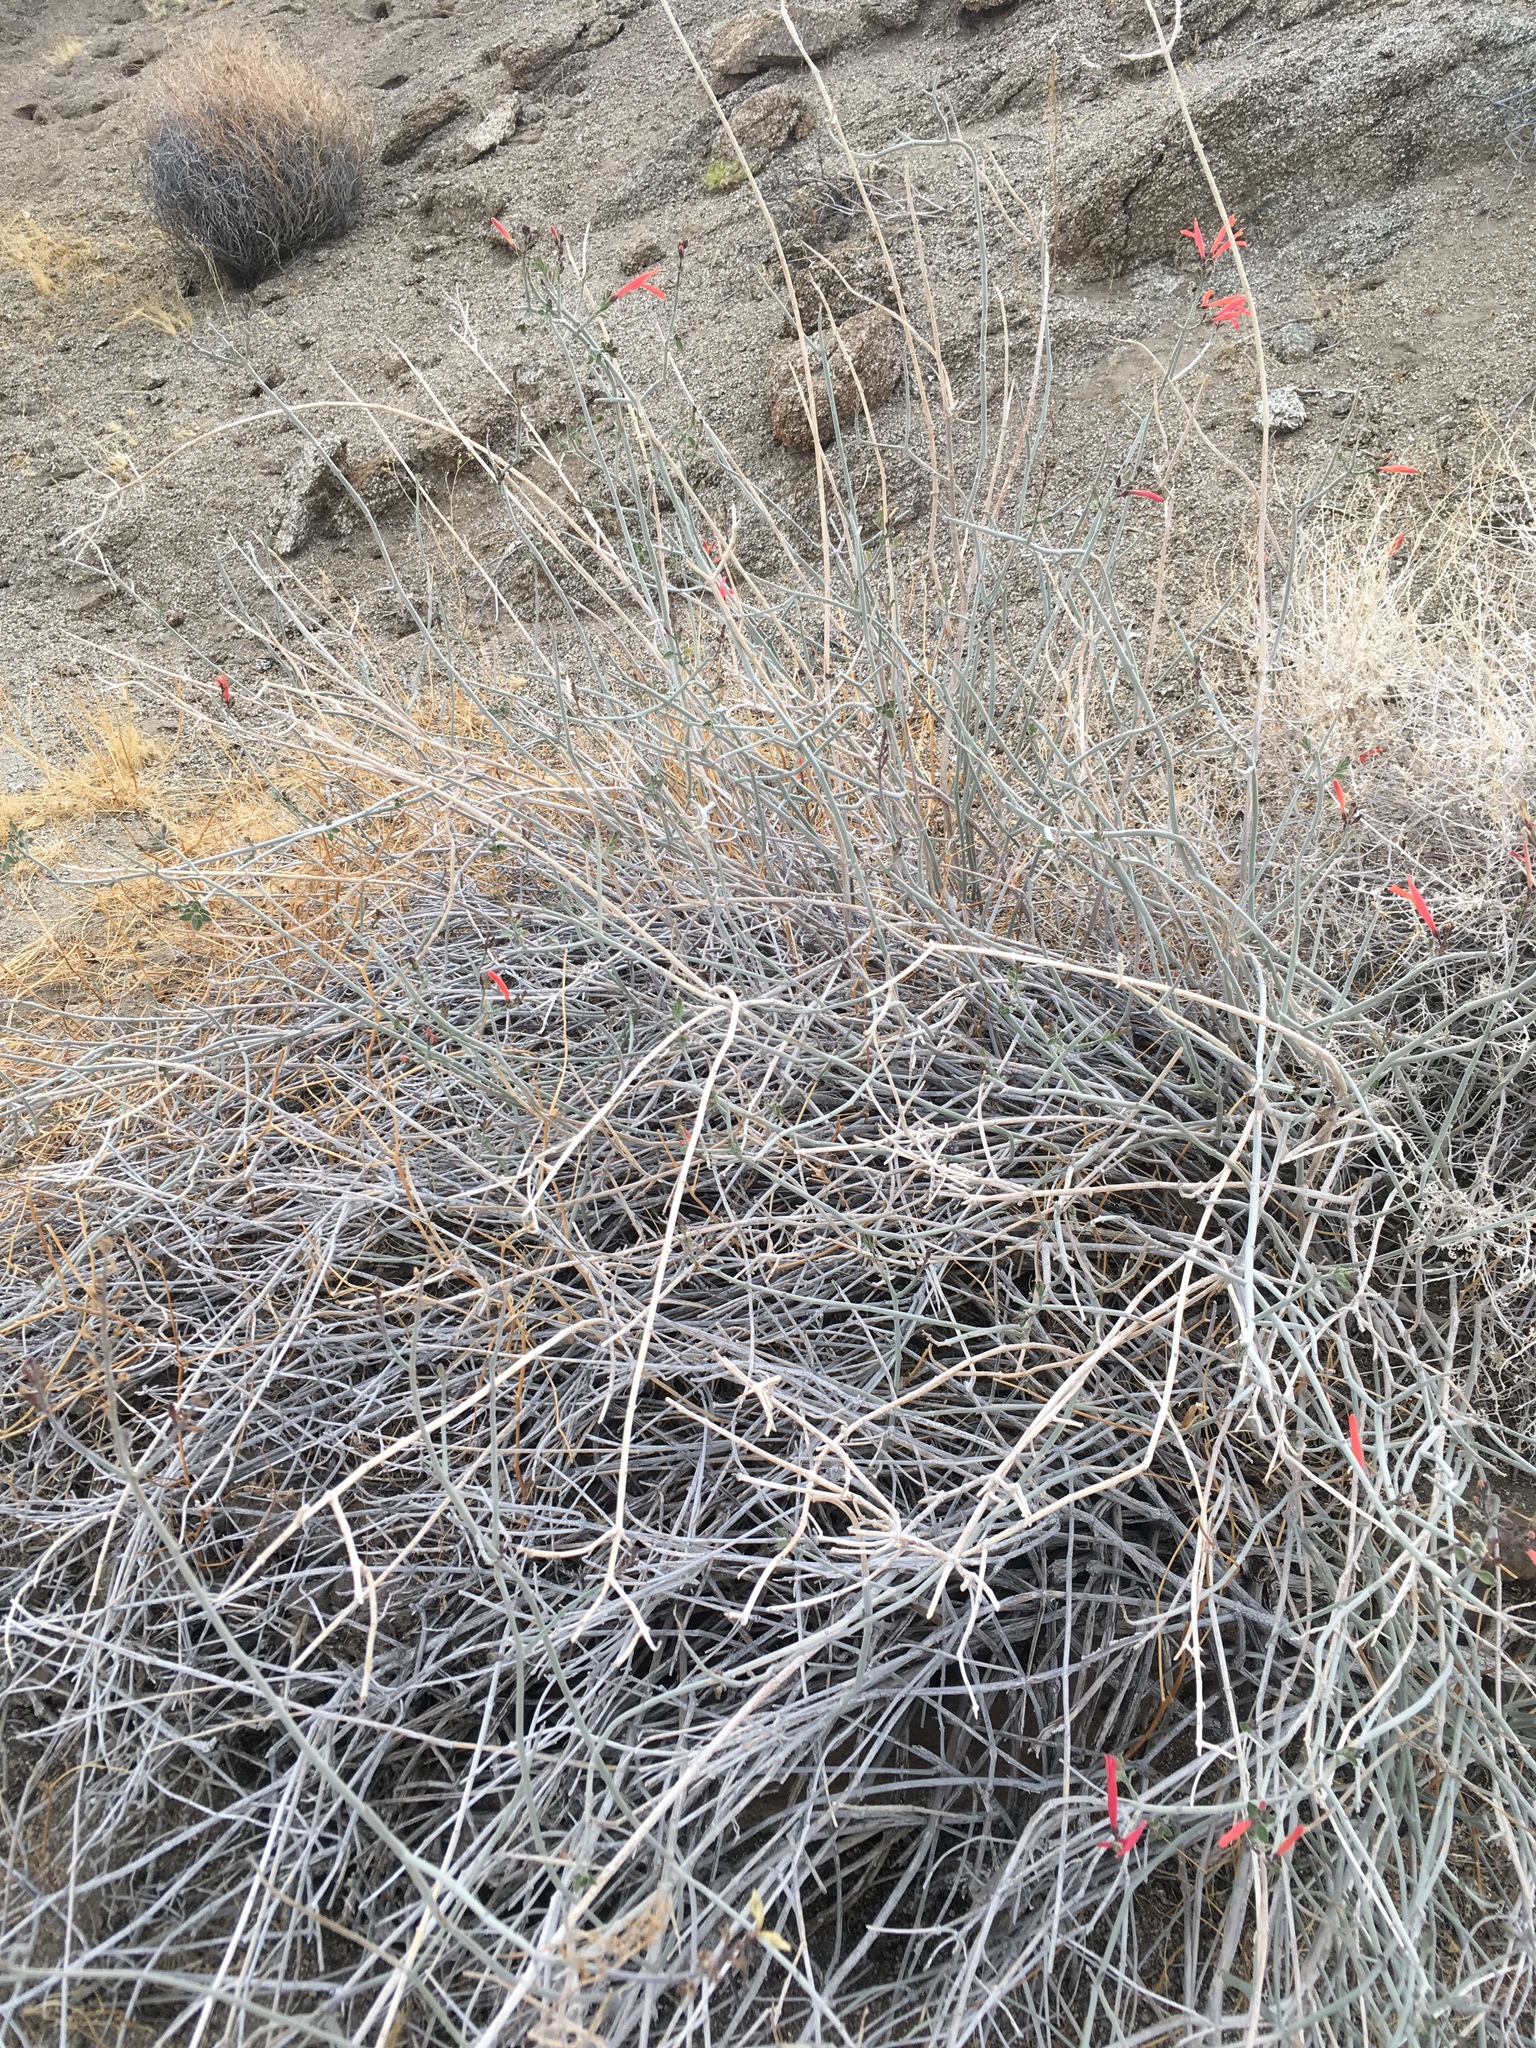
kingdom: Plantae
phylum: Tracheophyta
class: Magnoliopsida
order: Lamiales
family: Acanthaceae
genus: Justicia
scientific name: Justicia californica
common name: Chuparosa-honeysuckle
